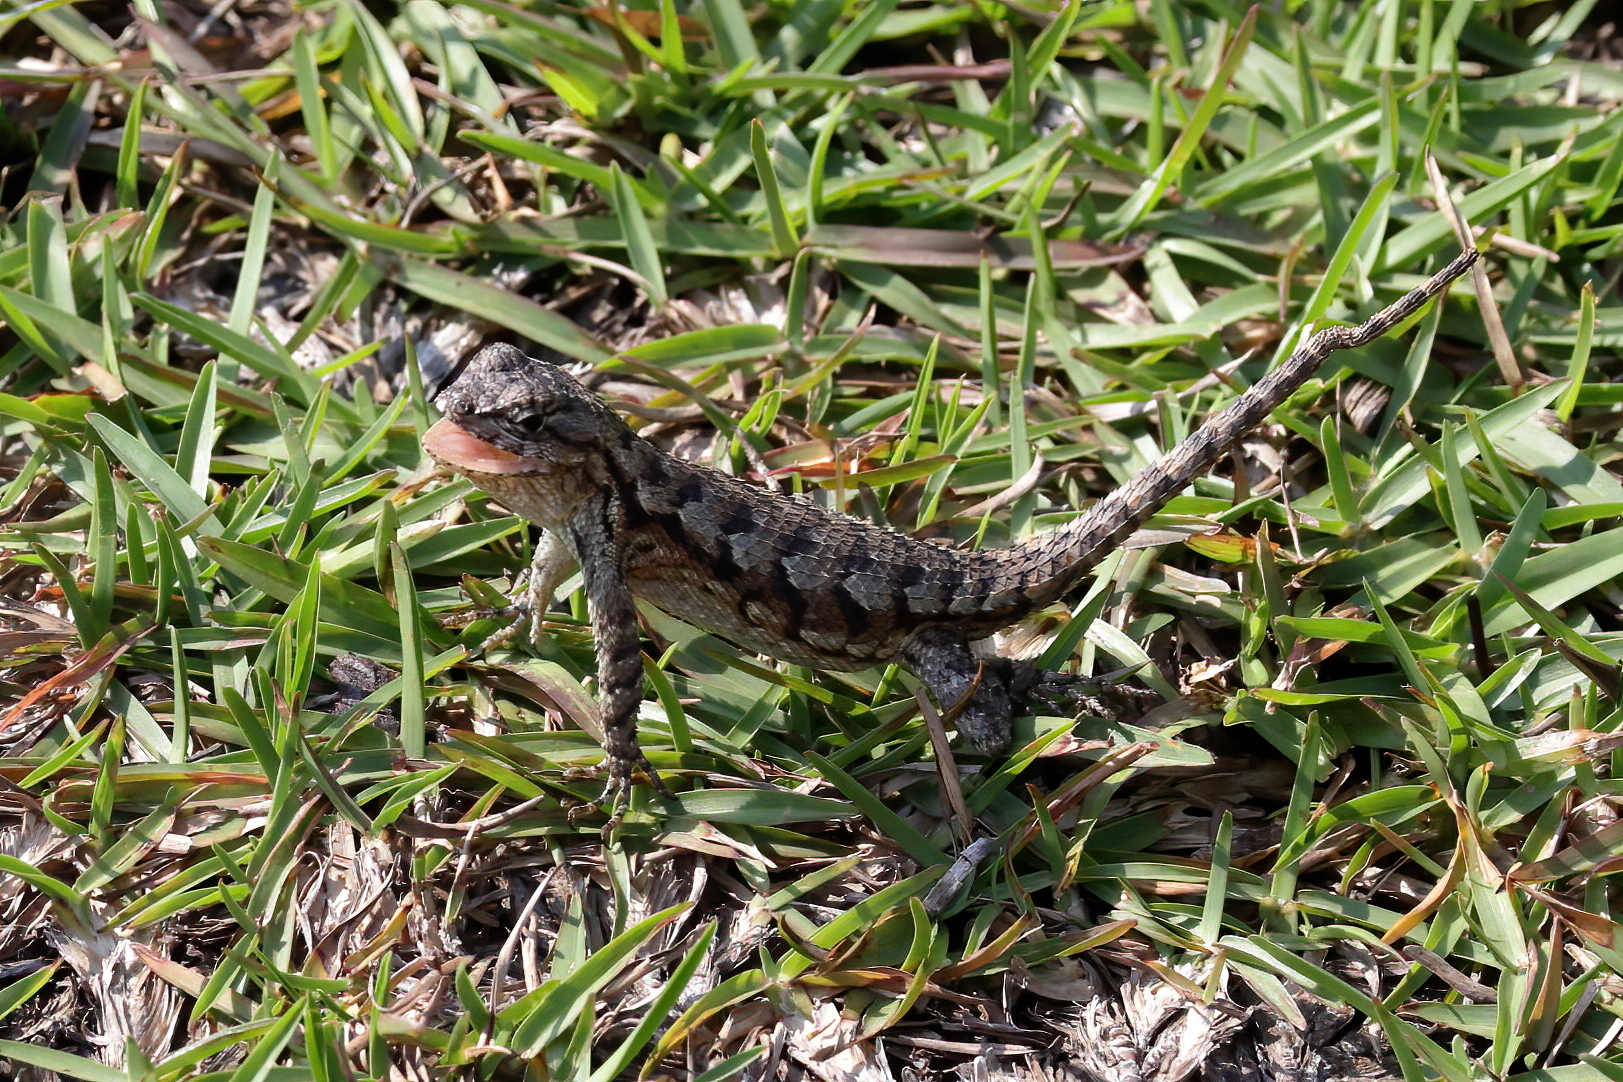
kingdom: Animalia
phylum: Chordata
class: Squamata
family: Phrynosomatidae
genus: Sceloporus
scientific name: Sceloporus undulatus
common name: Eastern fence lizard
